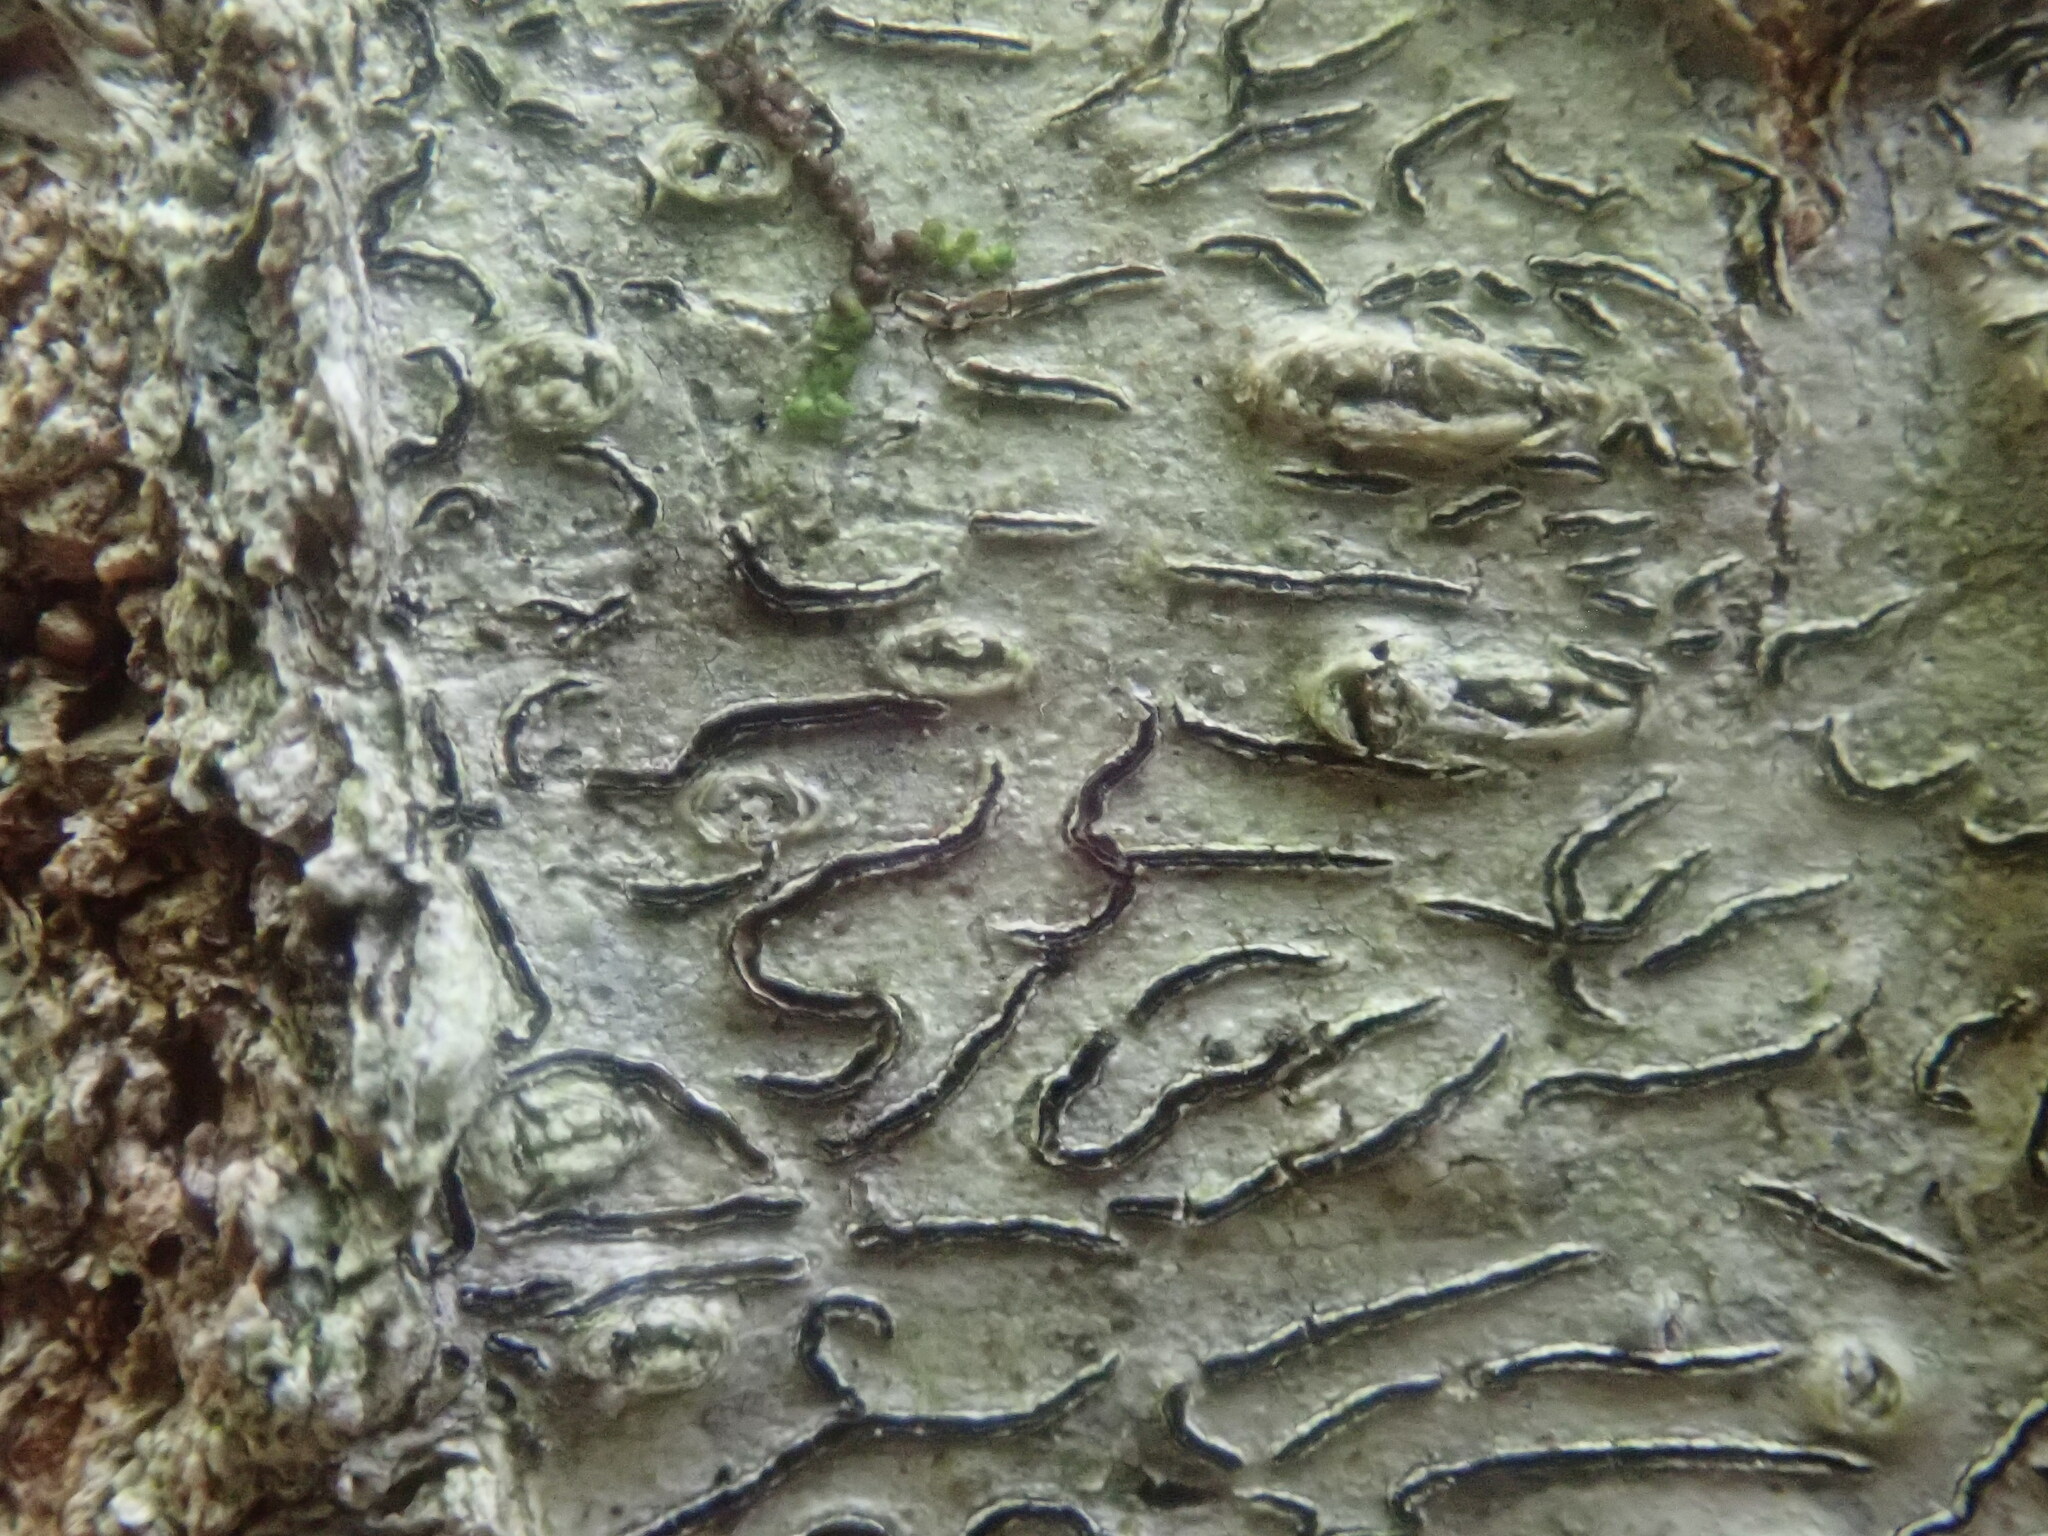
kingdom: Fungi
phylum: Ascomycota
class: Lecanoromycetes
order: Ostropales
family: Graphidaceae
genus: Graphis
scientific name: Graphis scripta
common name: Script lichen
